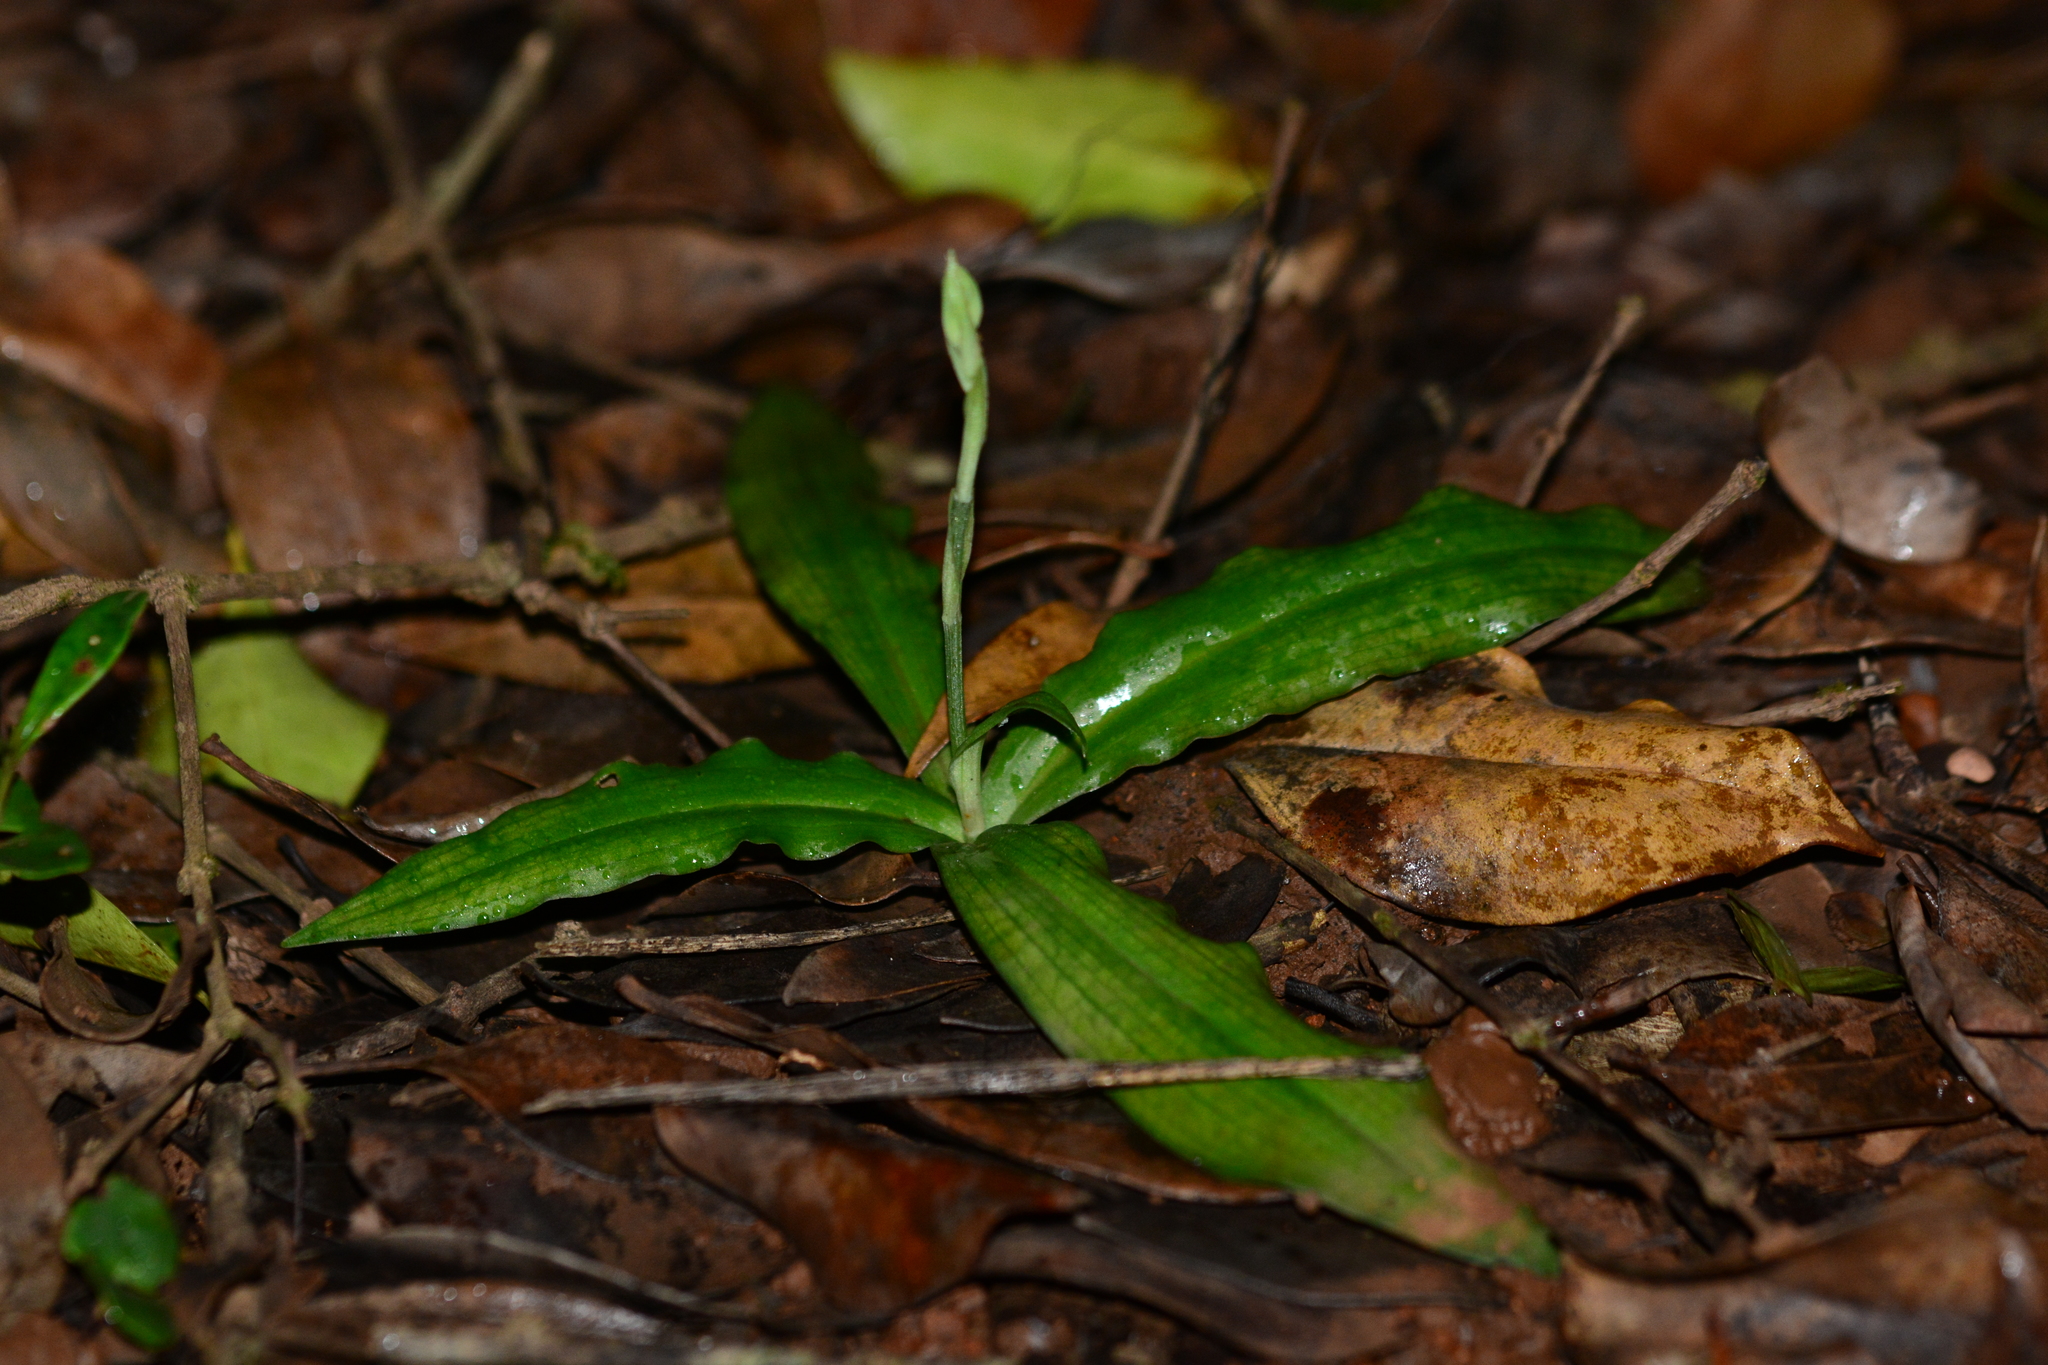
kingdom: Plantae
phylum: Tracheophyta
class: Liliopsida
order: Asparagales
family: Orchidaceae
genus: Habenaria
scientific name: Habenaria plantaginea
